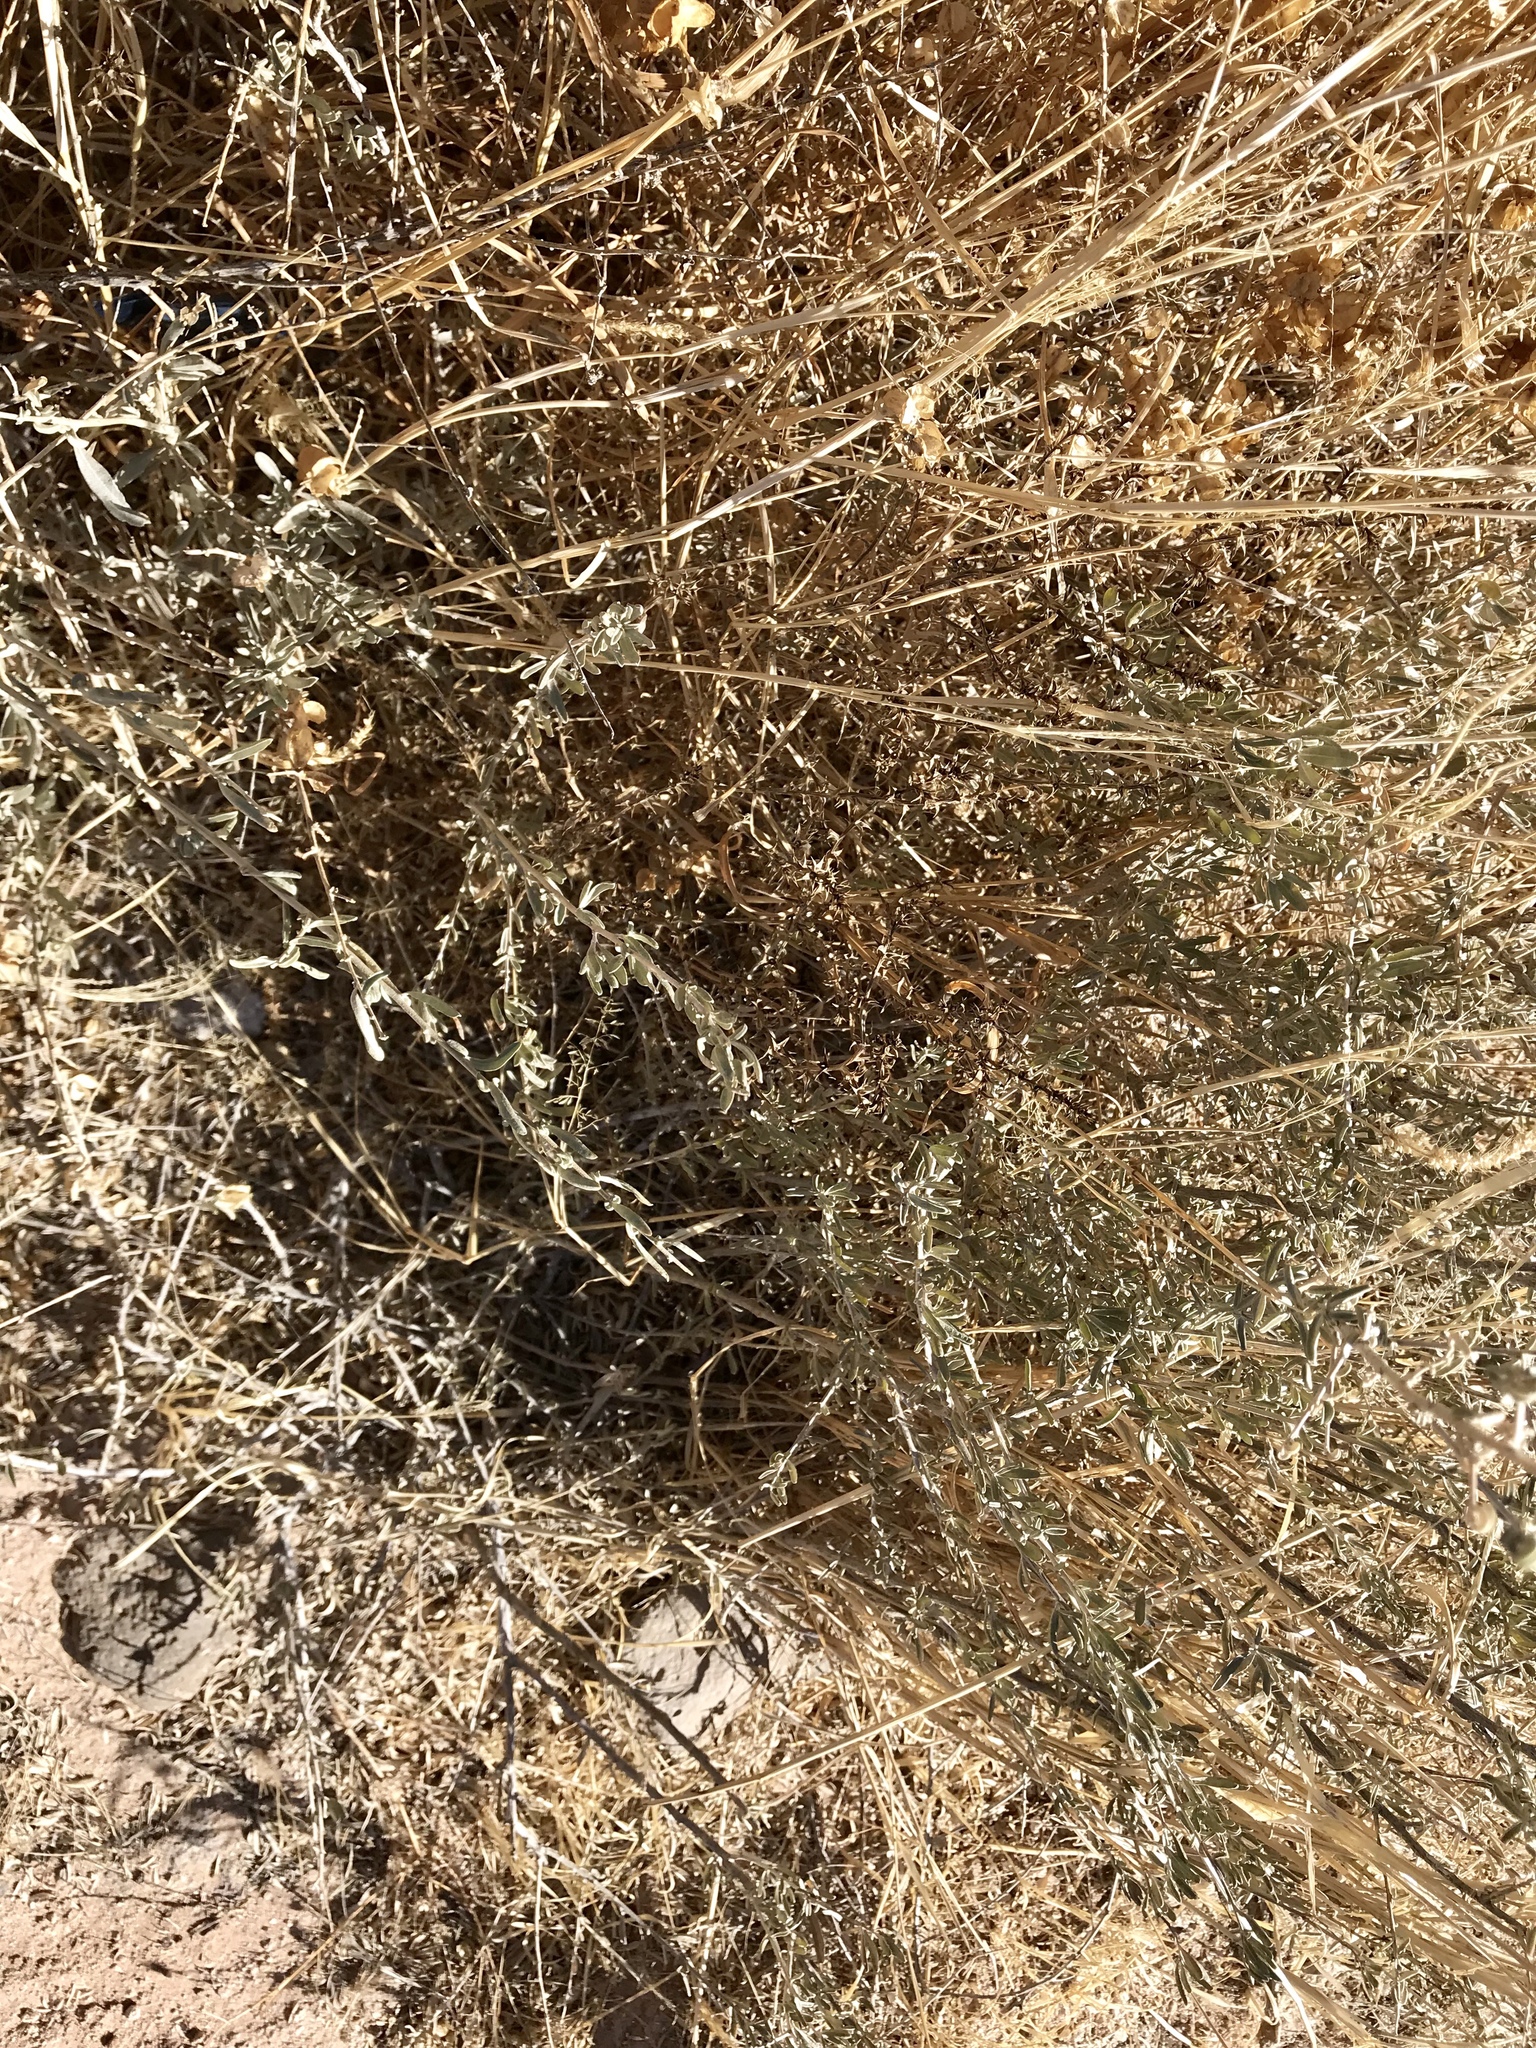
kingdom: Plantae
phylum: Tracheophyta
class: Magnoliopsida
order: Caryophyllales
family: Amaranthaceae
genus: Atriplex
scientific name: Atriplex canescens
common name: Four-wing saltbush
